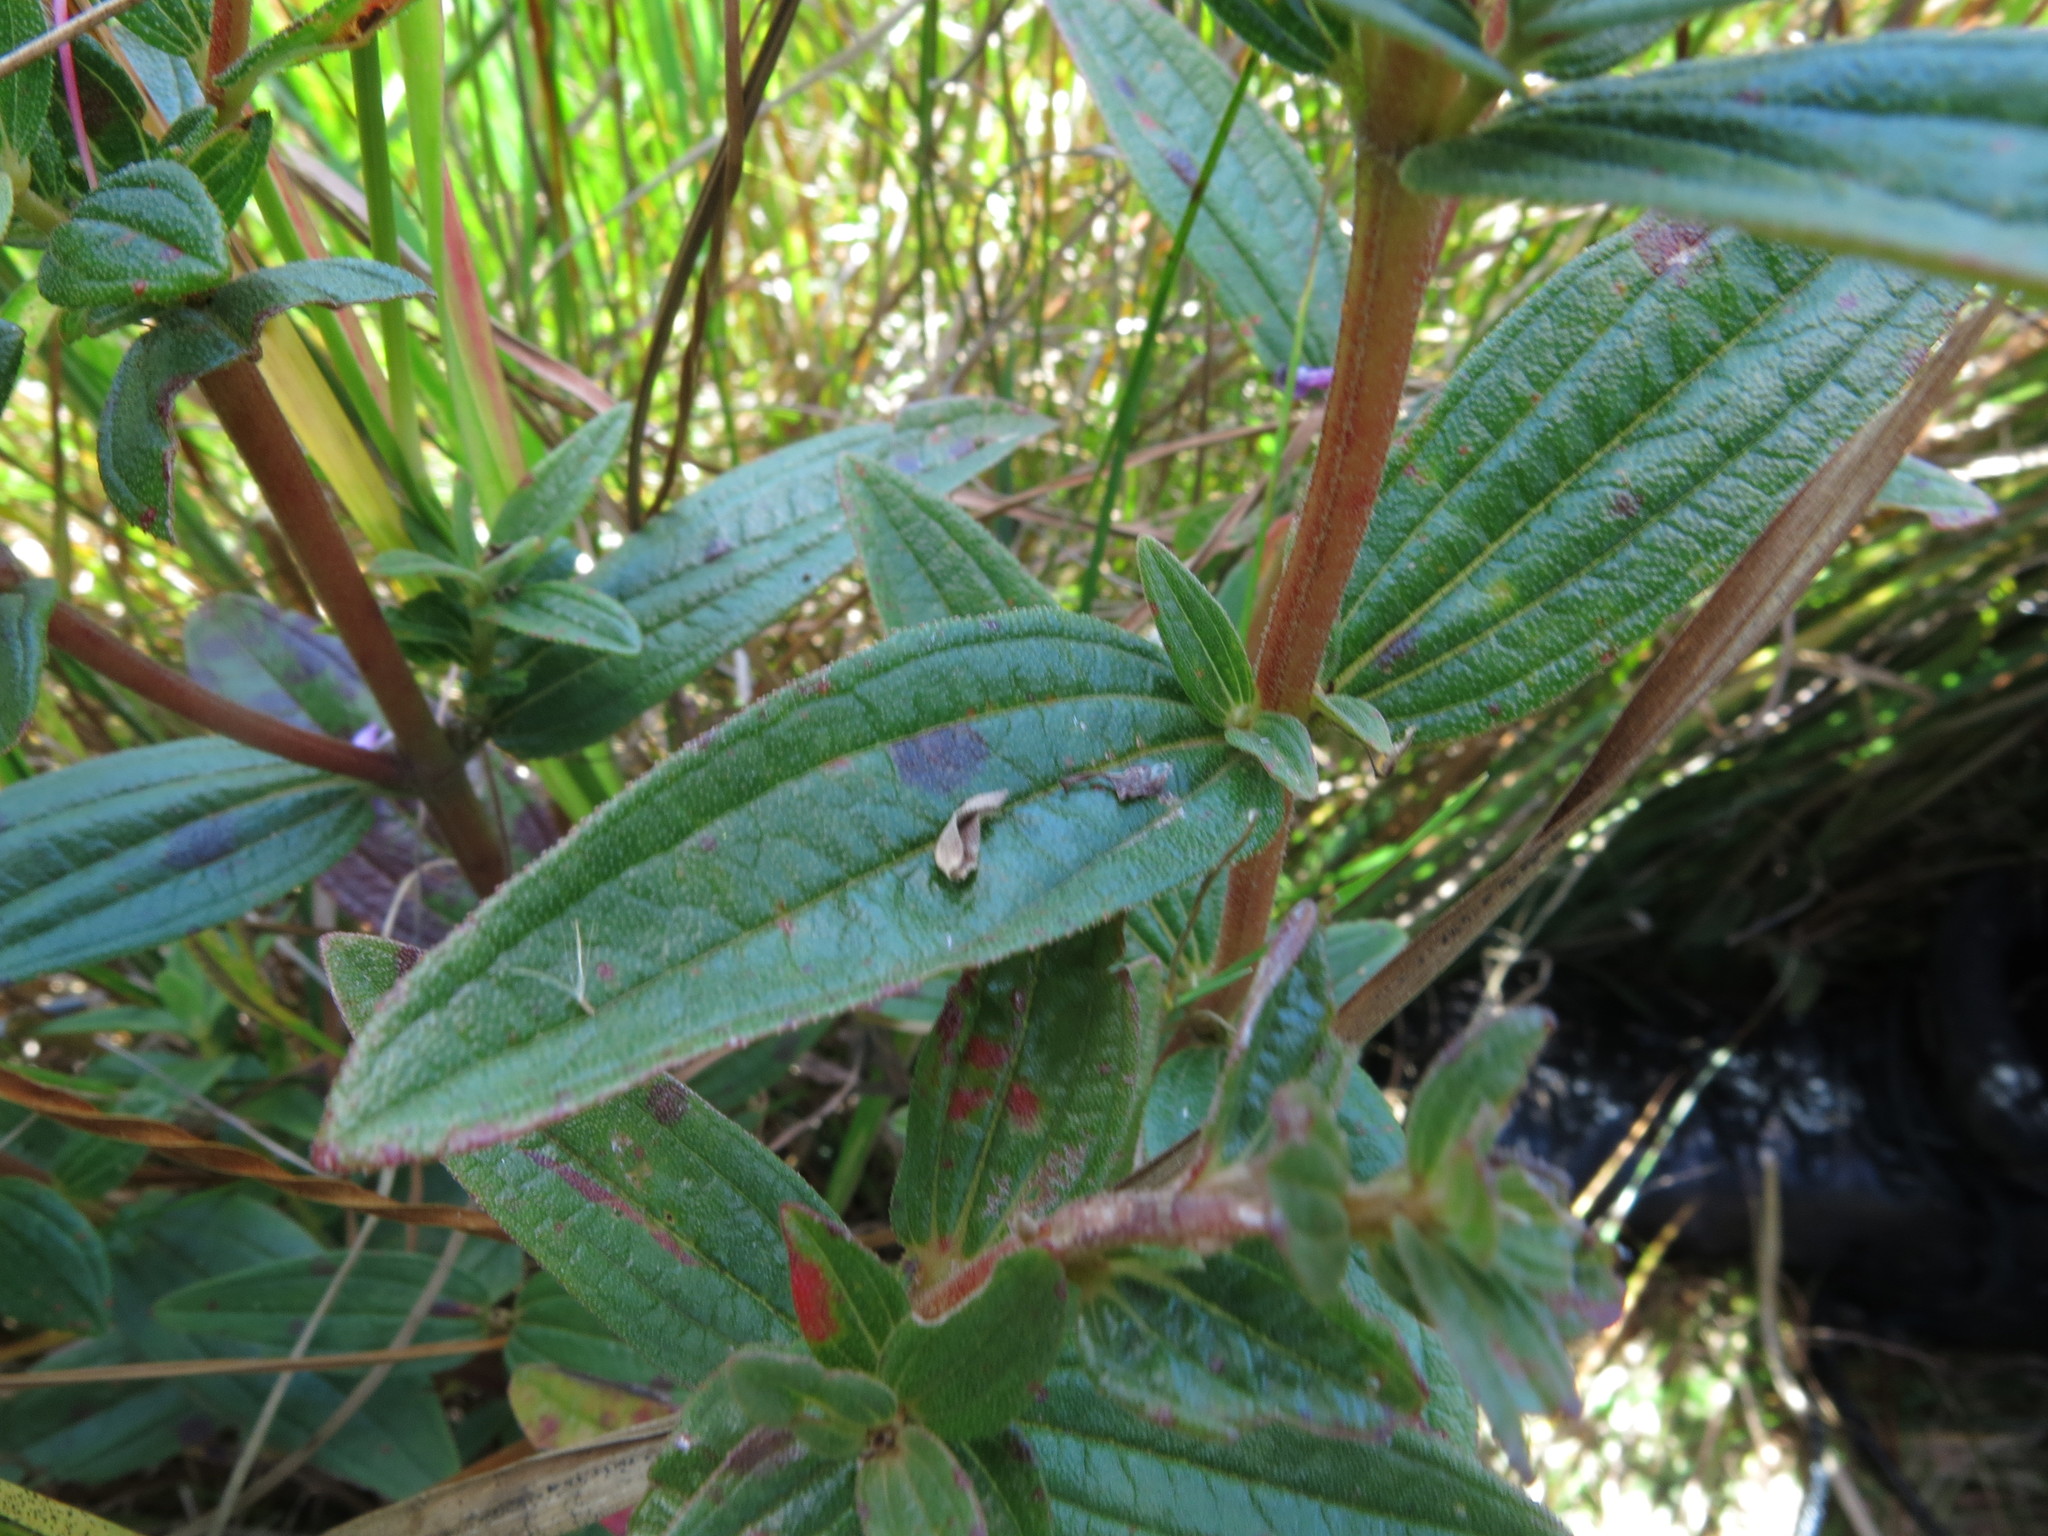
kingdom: Plantae
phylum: Tracheophyta
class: Magnoliopsida
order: Myrtales
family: Melastomataceae
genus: Argyrella
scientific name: Argyrella canescens
